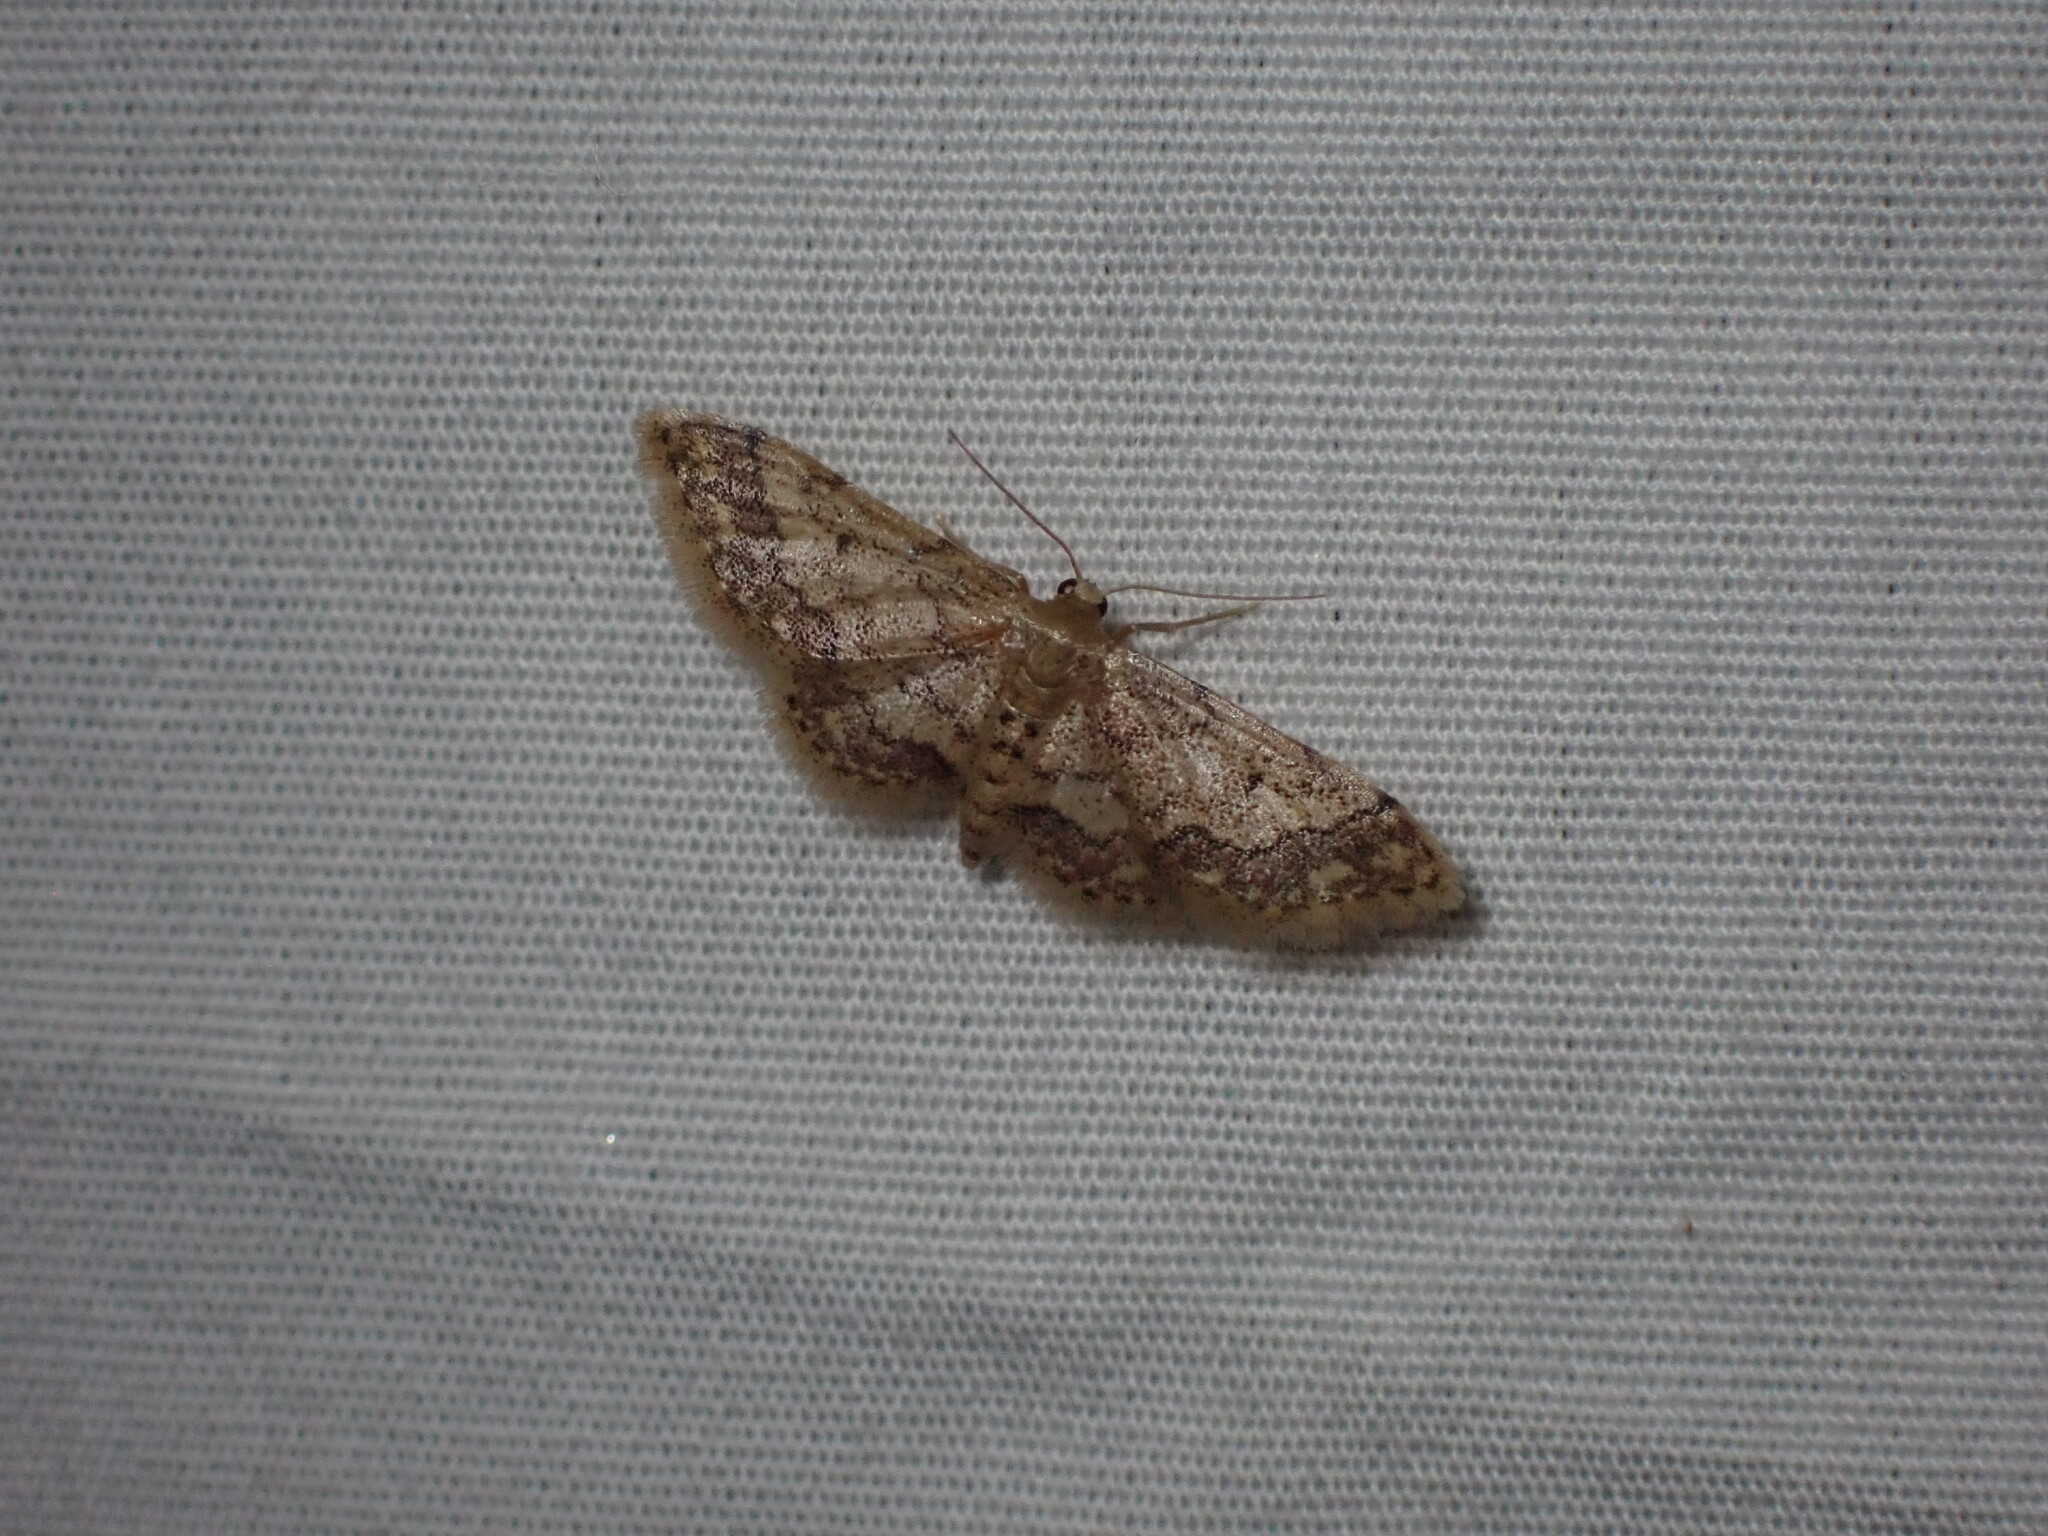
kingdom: Animalia
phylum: Arthropoda
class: Insecta
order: Lepidoptera
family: Geometridae
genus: Idaea
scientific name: Idaea celtima
